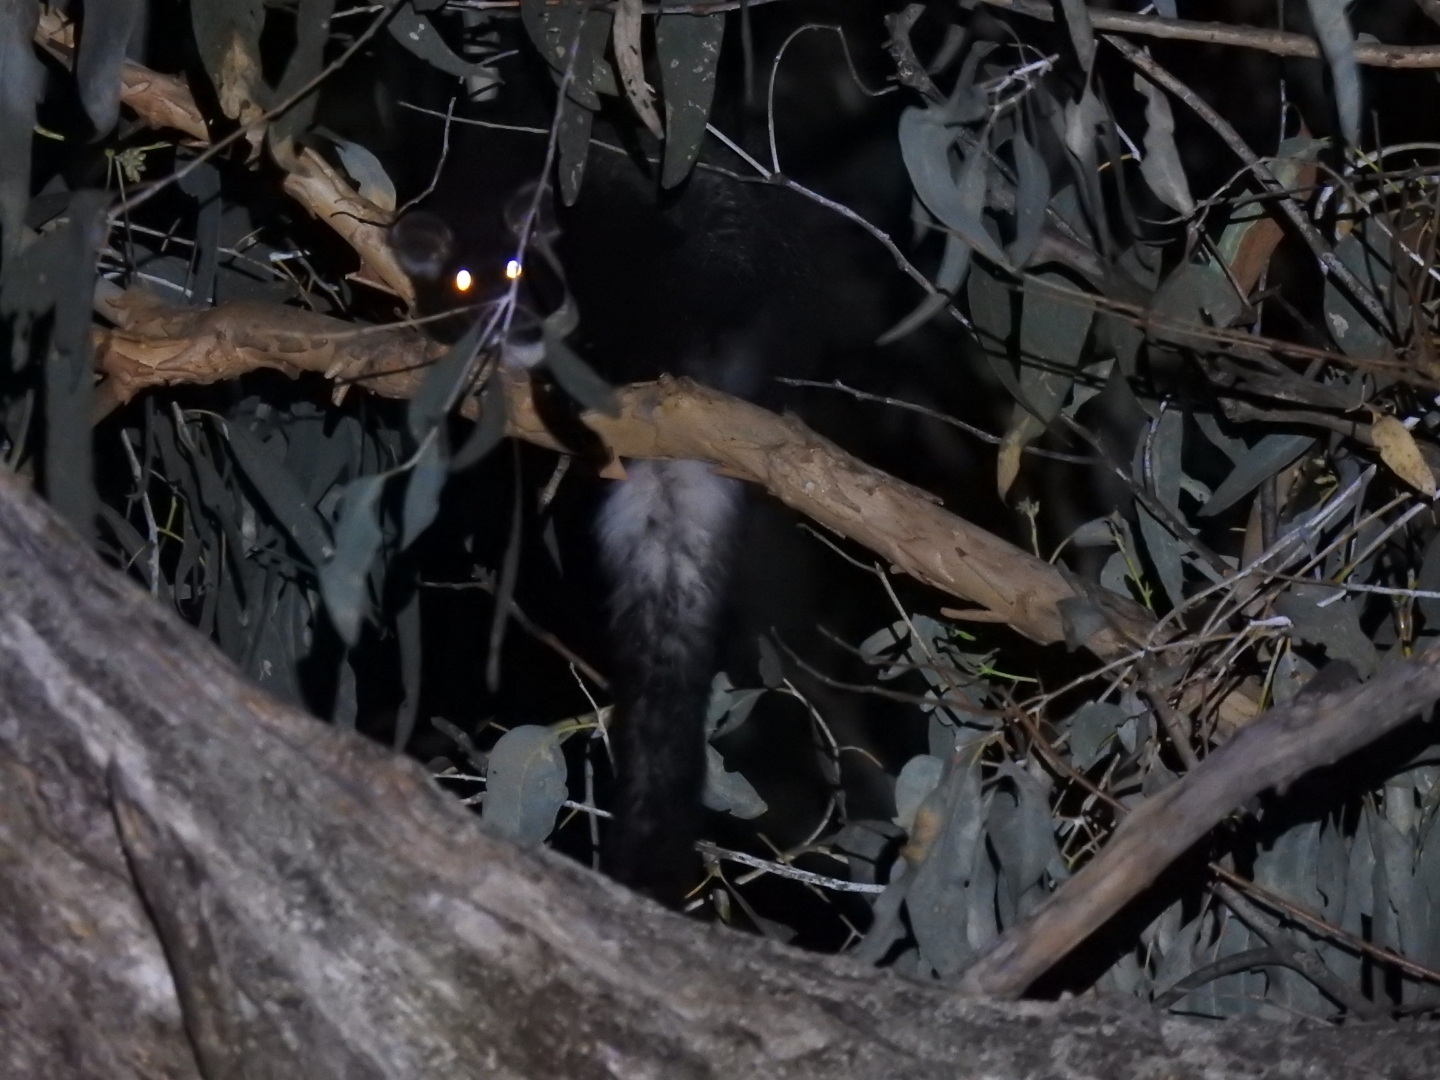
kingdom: Animalia
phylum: Chordata
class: Mammalia
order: Diprotodontia
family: Pseudocheiridae
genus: Petauroides
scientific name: Petauroides volans
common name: Greater glider
